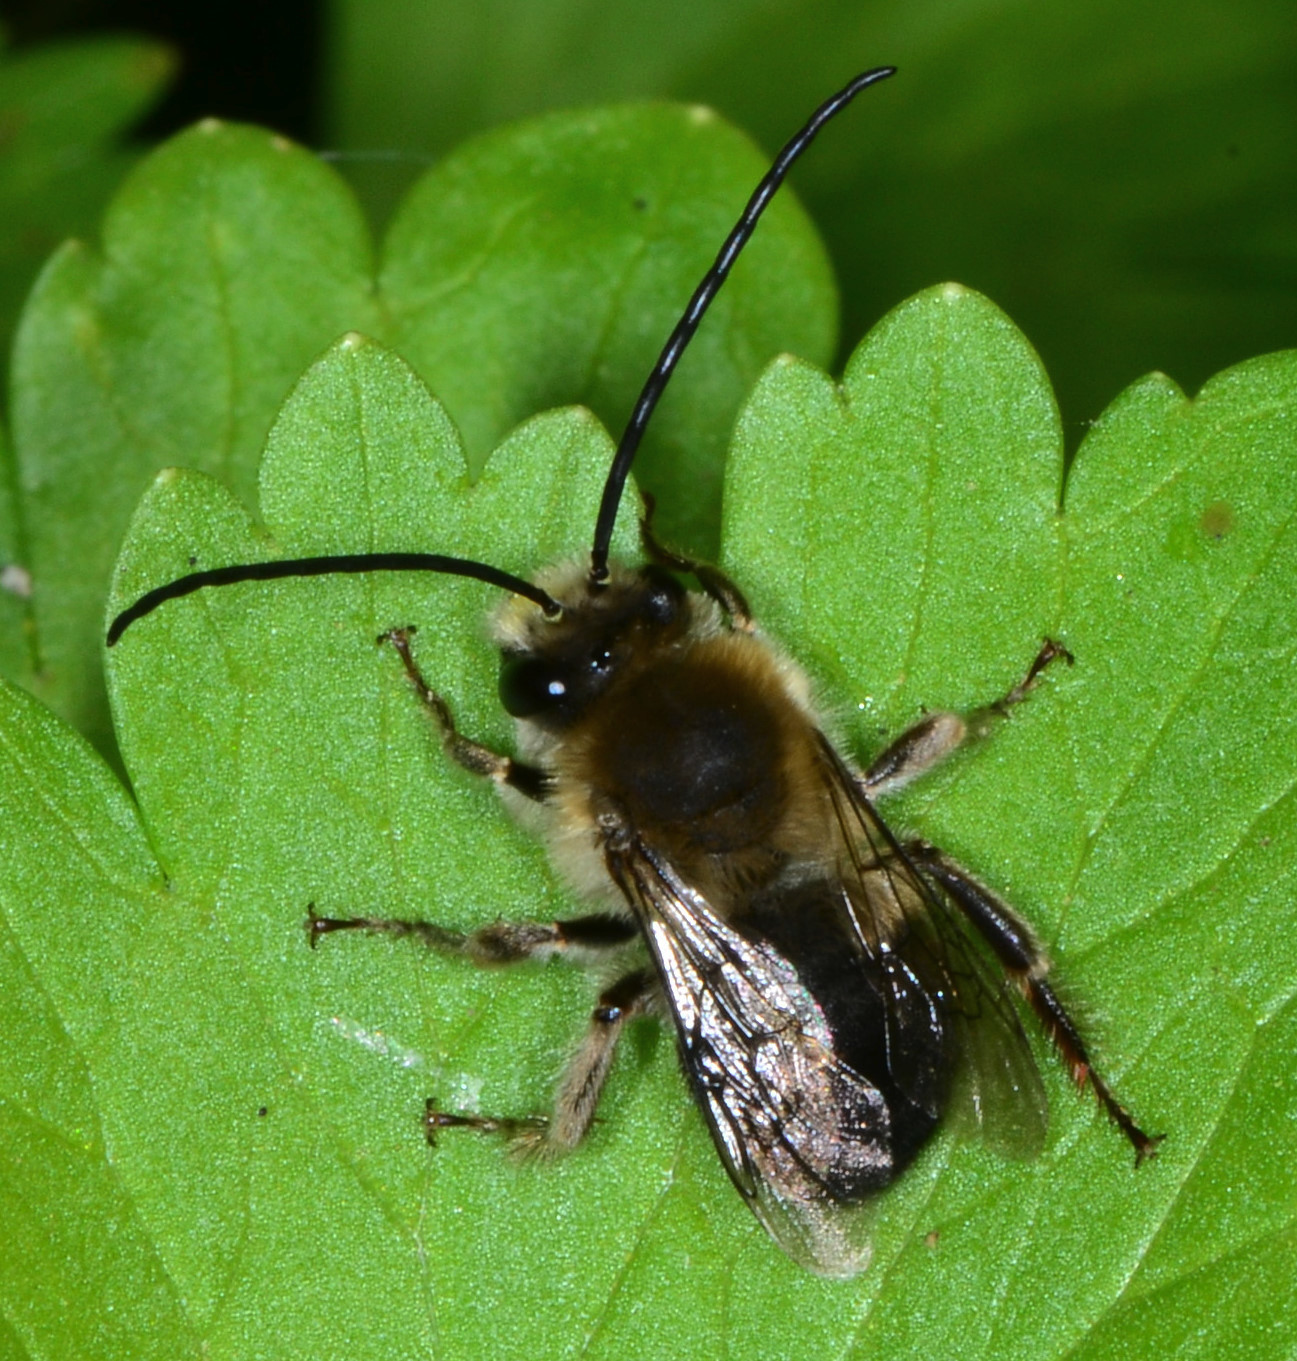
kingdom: Animalia
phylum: Arthropoda
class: Insecta
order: Hymenoptera
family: Apidae
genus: Synhalonia
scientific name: Synhalonia
